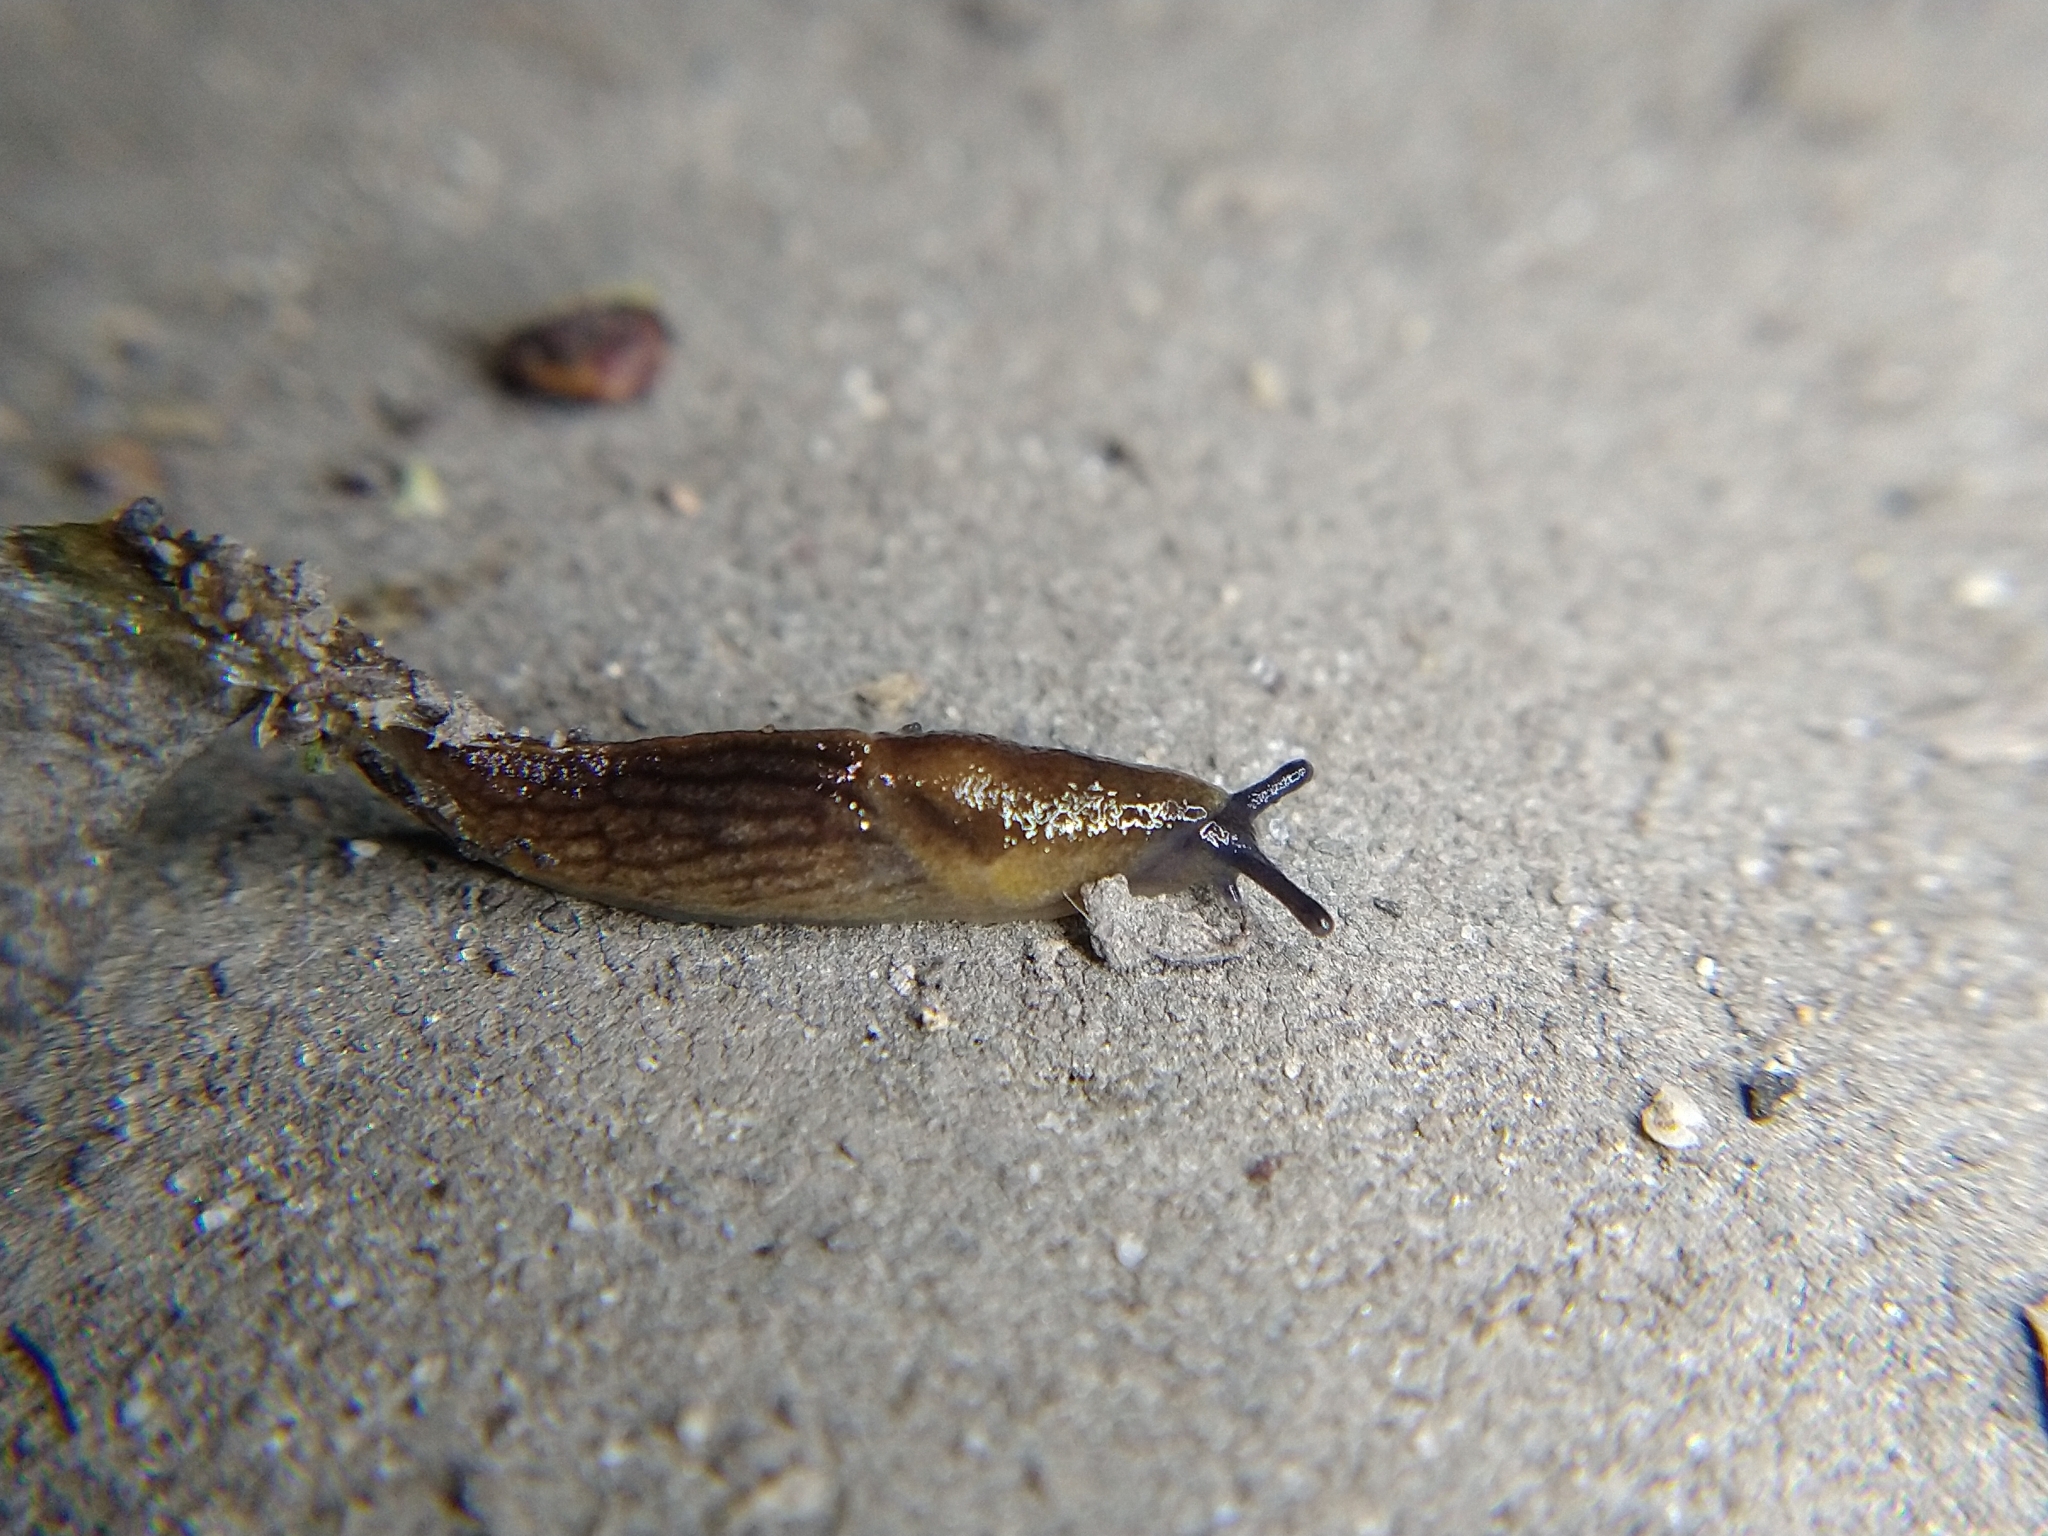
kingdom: Animalia
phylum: Mollusca
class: Gastropoda
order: Stylommatophora
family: Milacidae
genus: Milax
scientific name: Milax gagates
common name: Greenhouse slug
